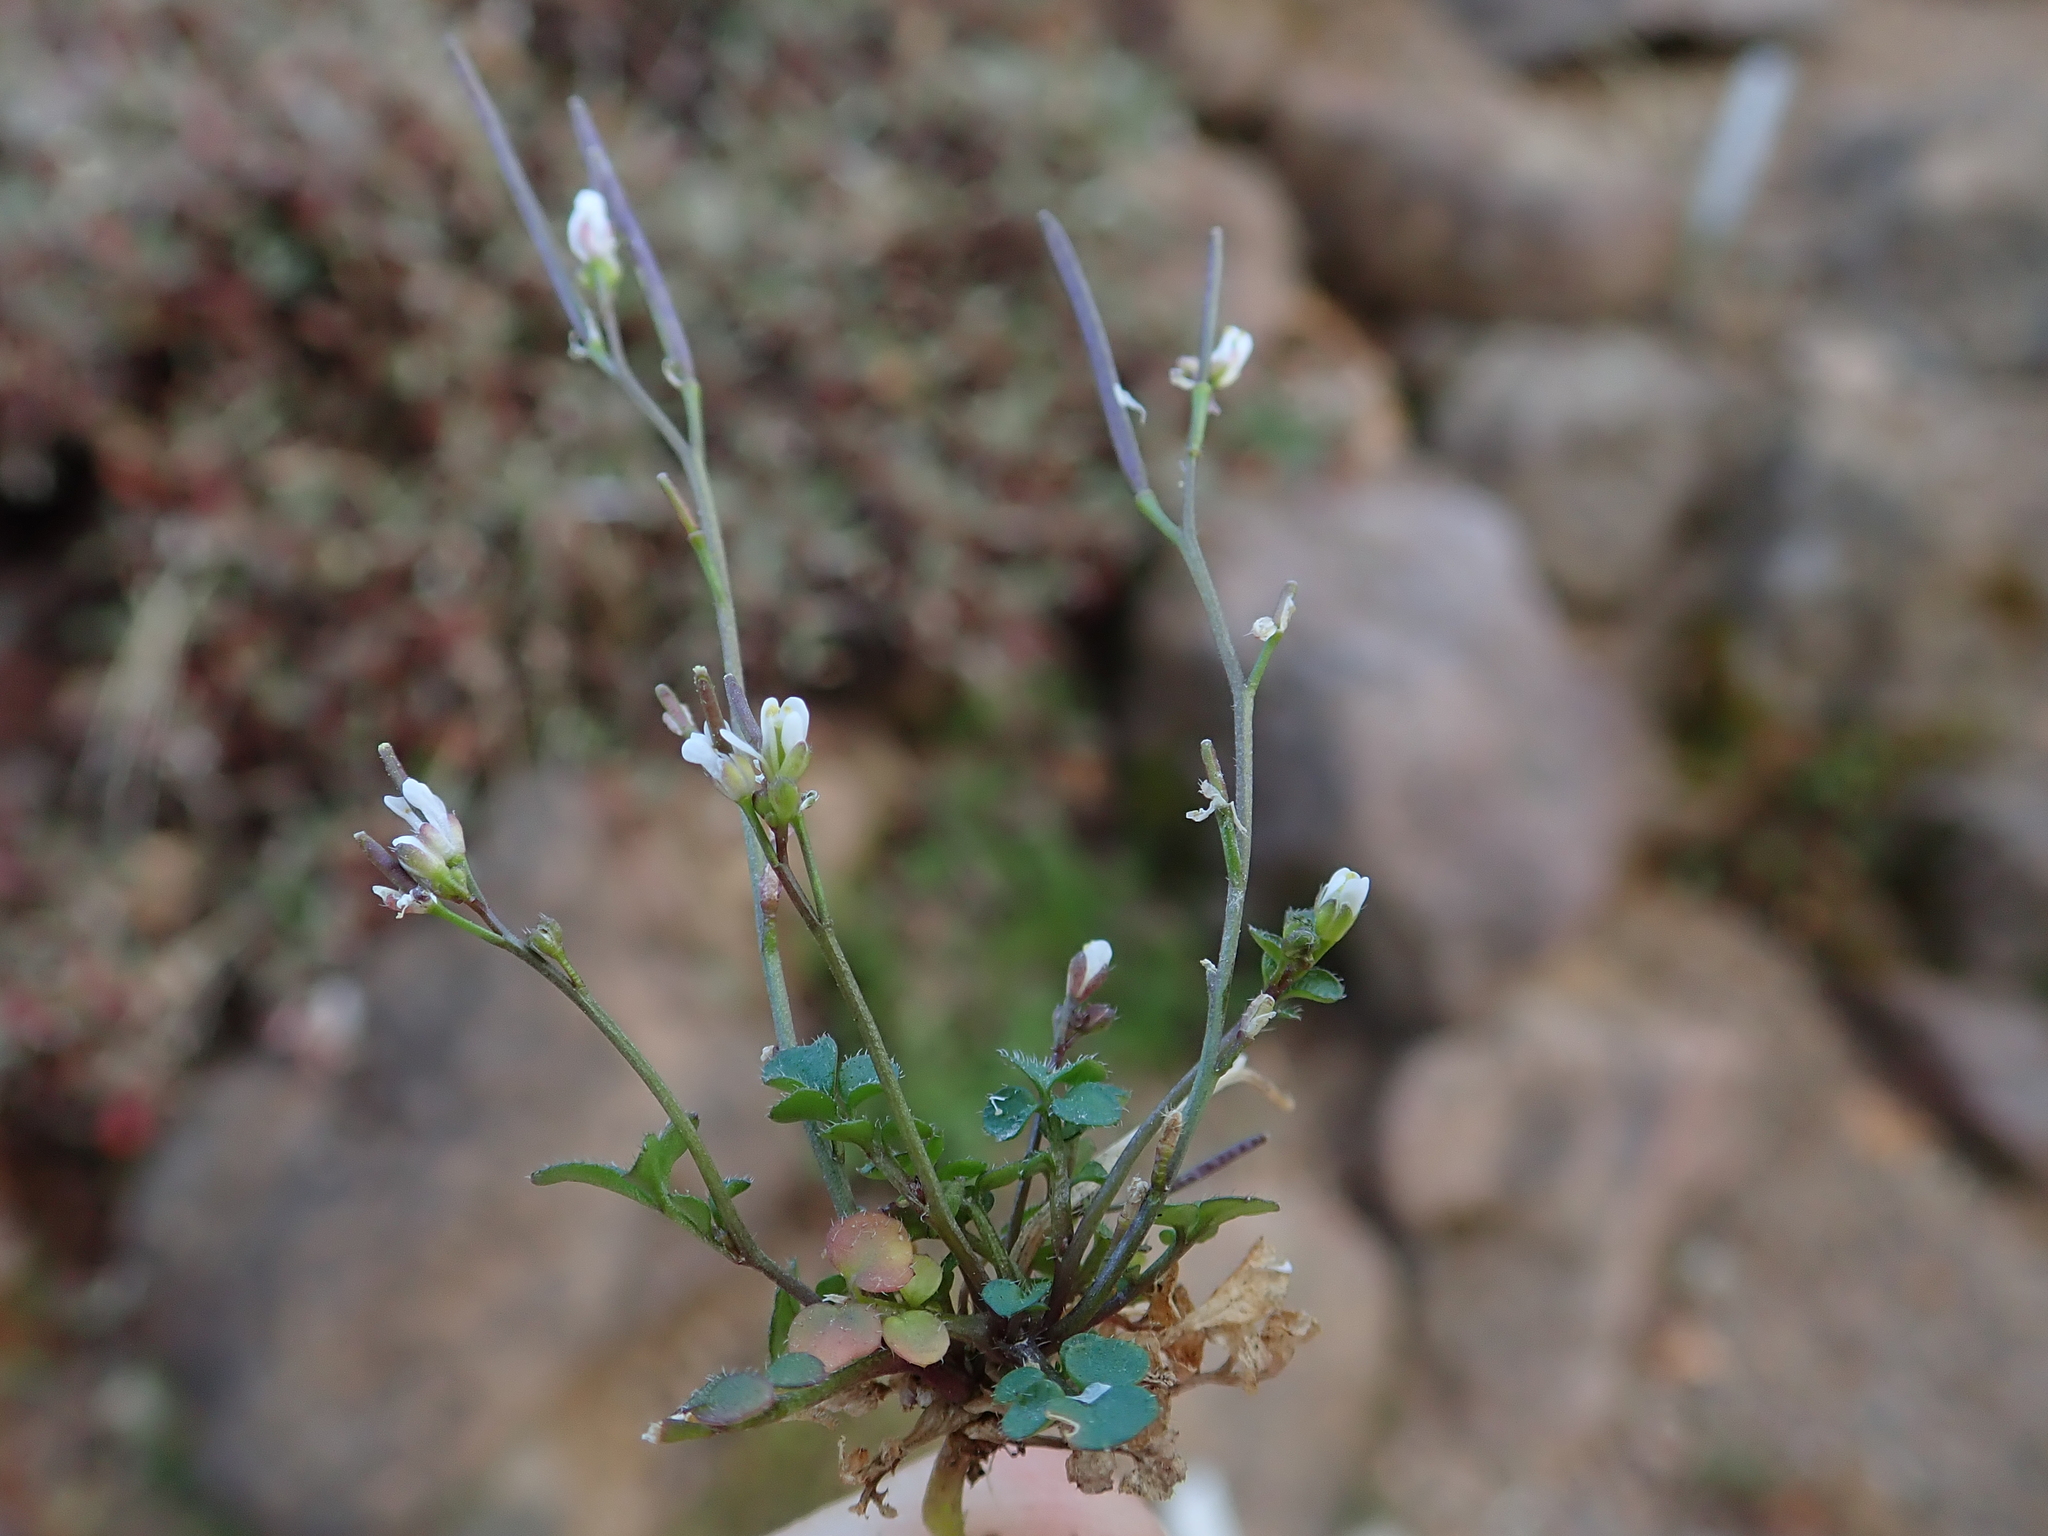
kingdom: Plantae
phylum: Tracheophyta
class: Magnoliopsida
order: Brassicales
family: Brassicaceae
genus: Cardamine
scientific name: Cardamine hirsuta
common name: Hairy bittercress
